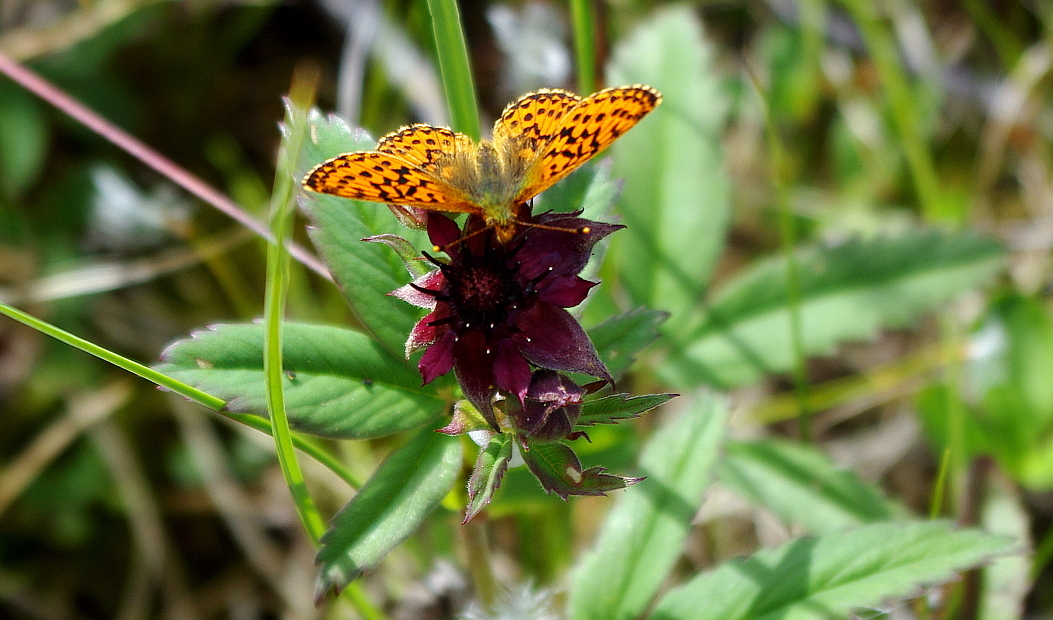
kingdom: Plantae
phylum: Tracheophyta
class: Magnoliopsida
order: Rosales
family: Rosaceae
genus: Comarum
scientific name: Comarum palustre
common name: Marsh cinquefoil
